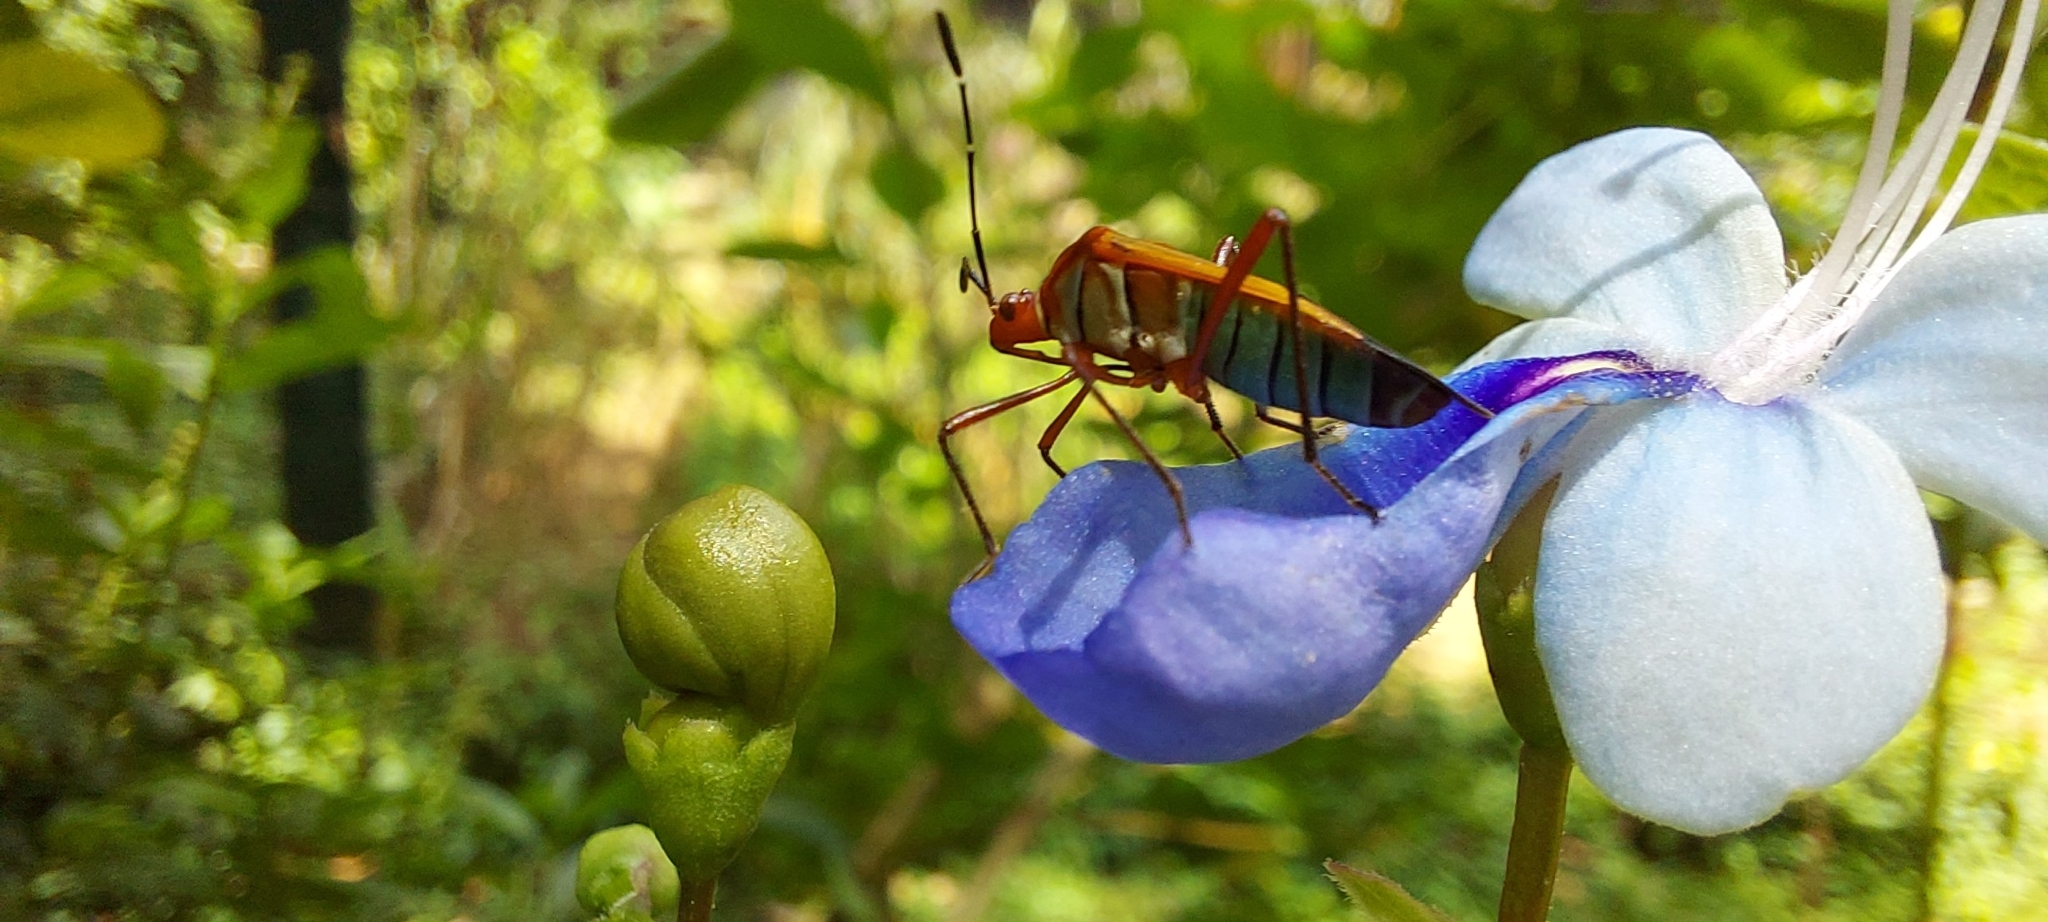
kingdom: Animalia
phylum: Arthropoda
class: Insecta
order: Hemiptera
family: Coreidae
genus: Hypselonotus
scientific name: Hypselonotus interruptus
